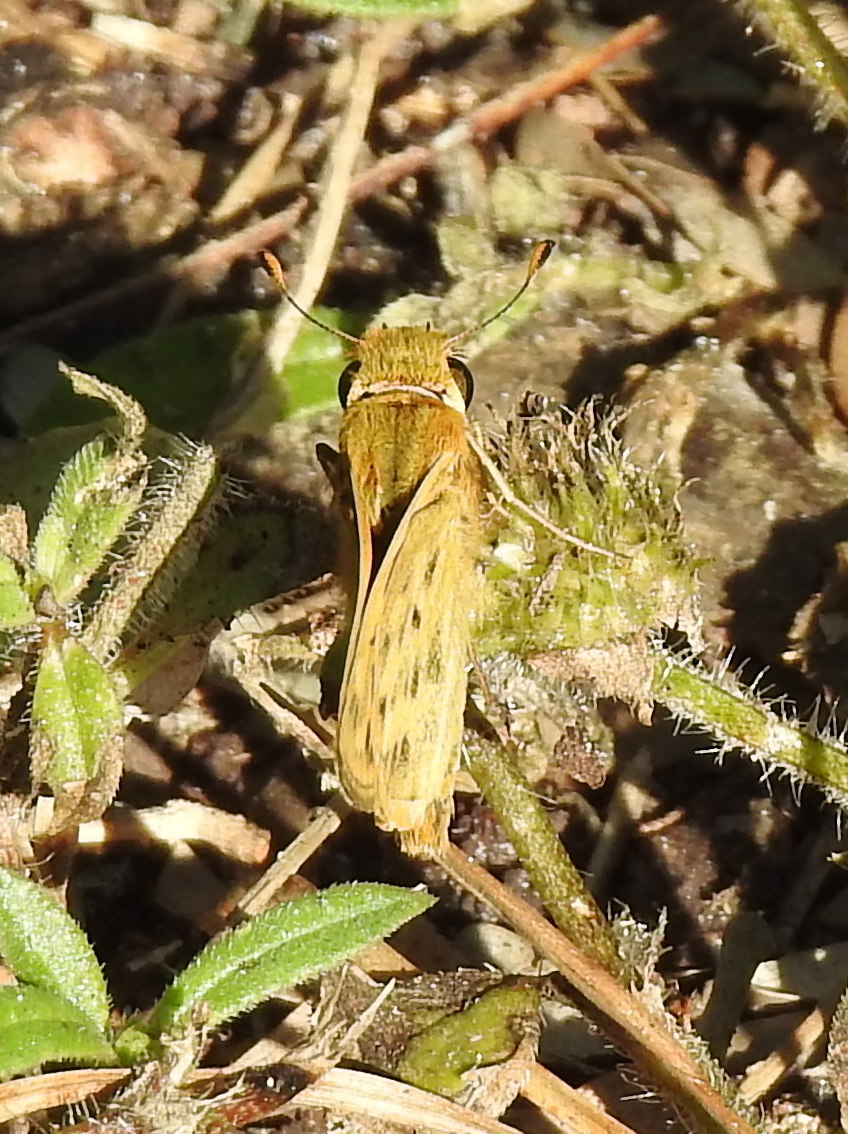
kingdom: Animalia
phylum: Arthropoda
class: Insecta
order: Lepidoptera
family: Hesperiidae
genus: Hylephila
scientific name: Hylephila phyleus
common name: Fiery skipper
